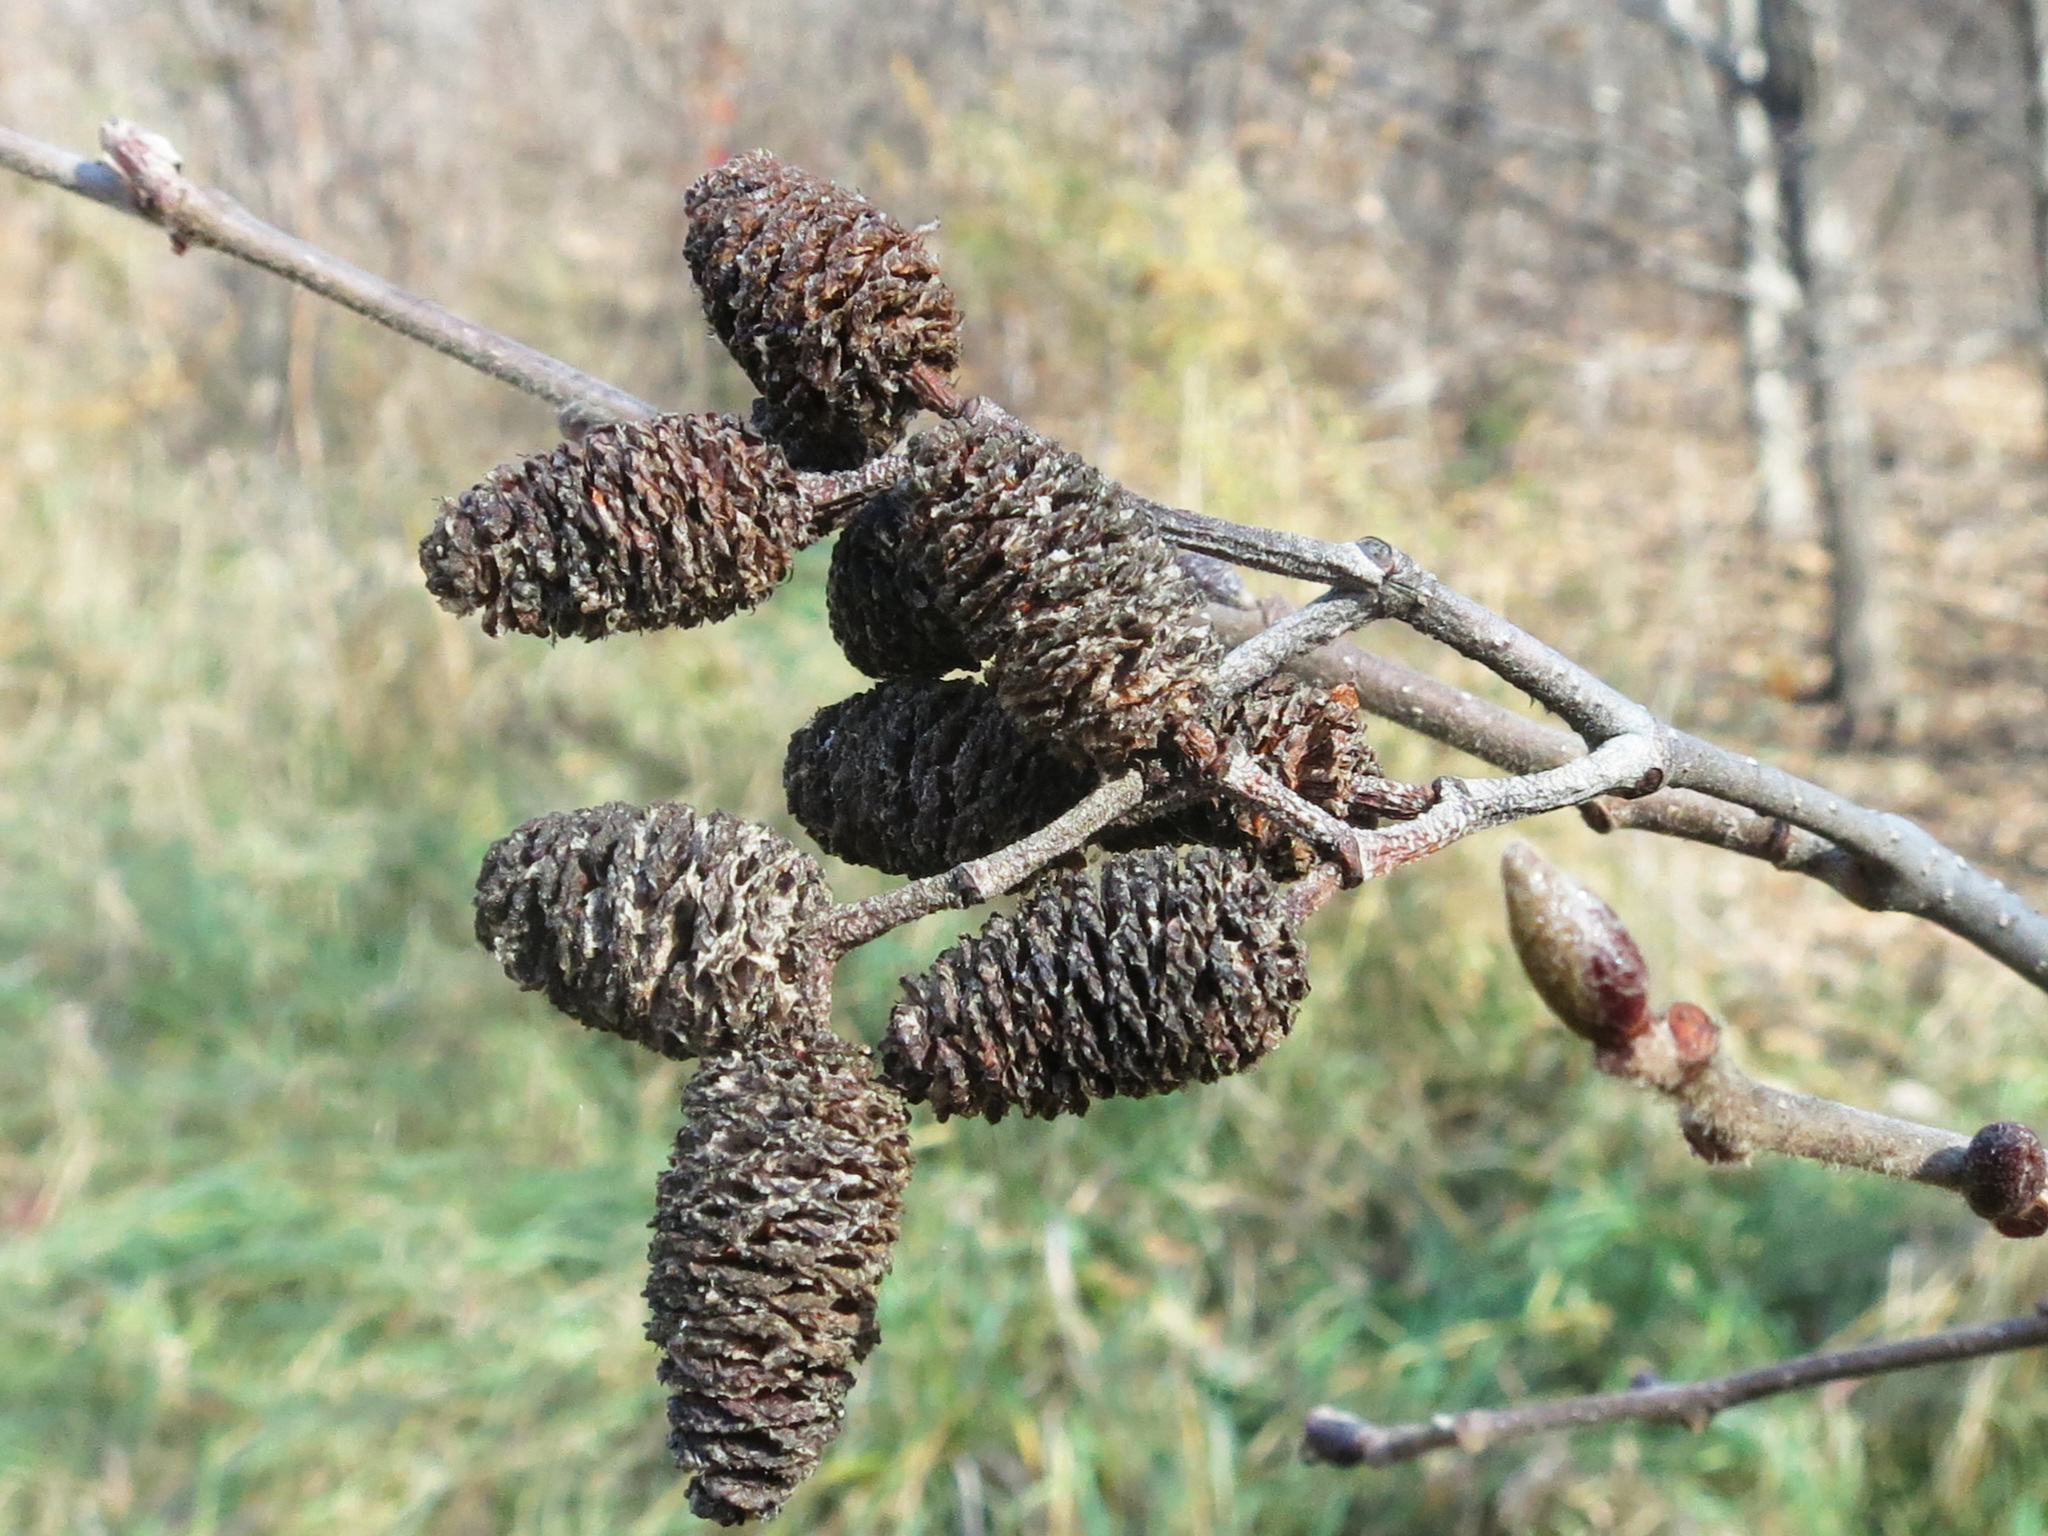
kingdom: Plantae
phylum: Tracheophyta
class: Magnoliopsida
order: Fagales
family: Betulaceae
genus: Alnus
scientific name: Alnus hirsuta
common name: Manchurian alder
